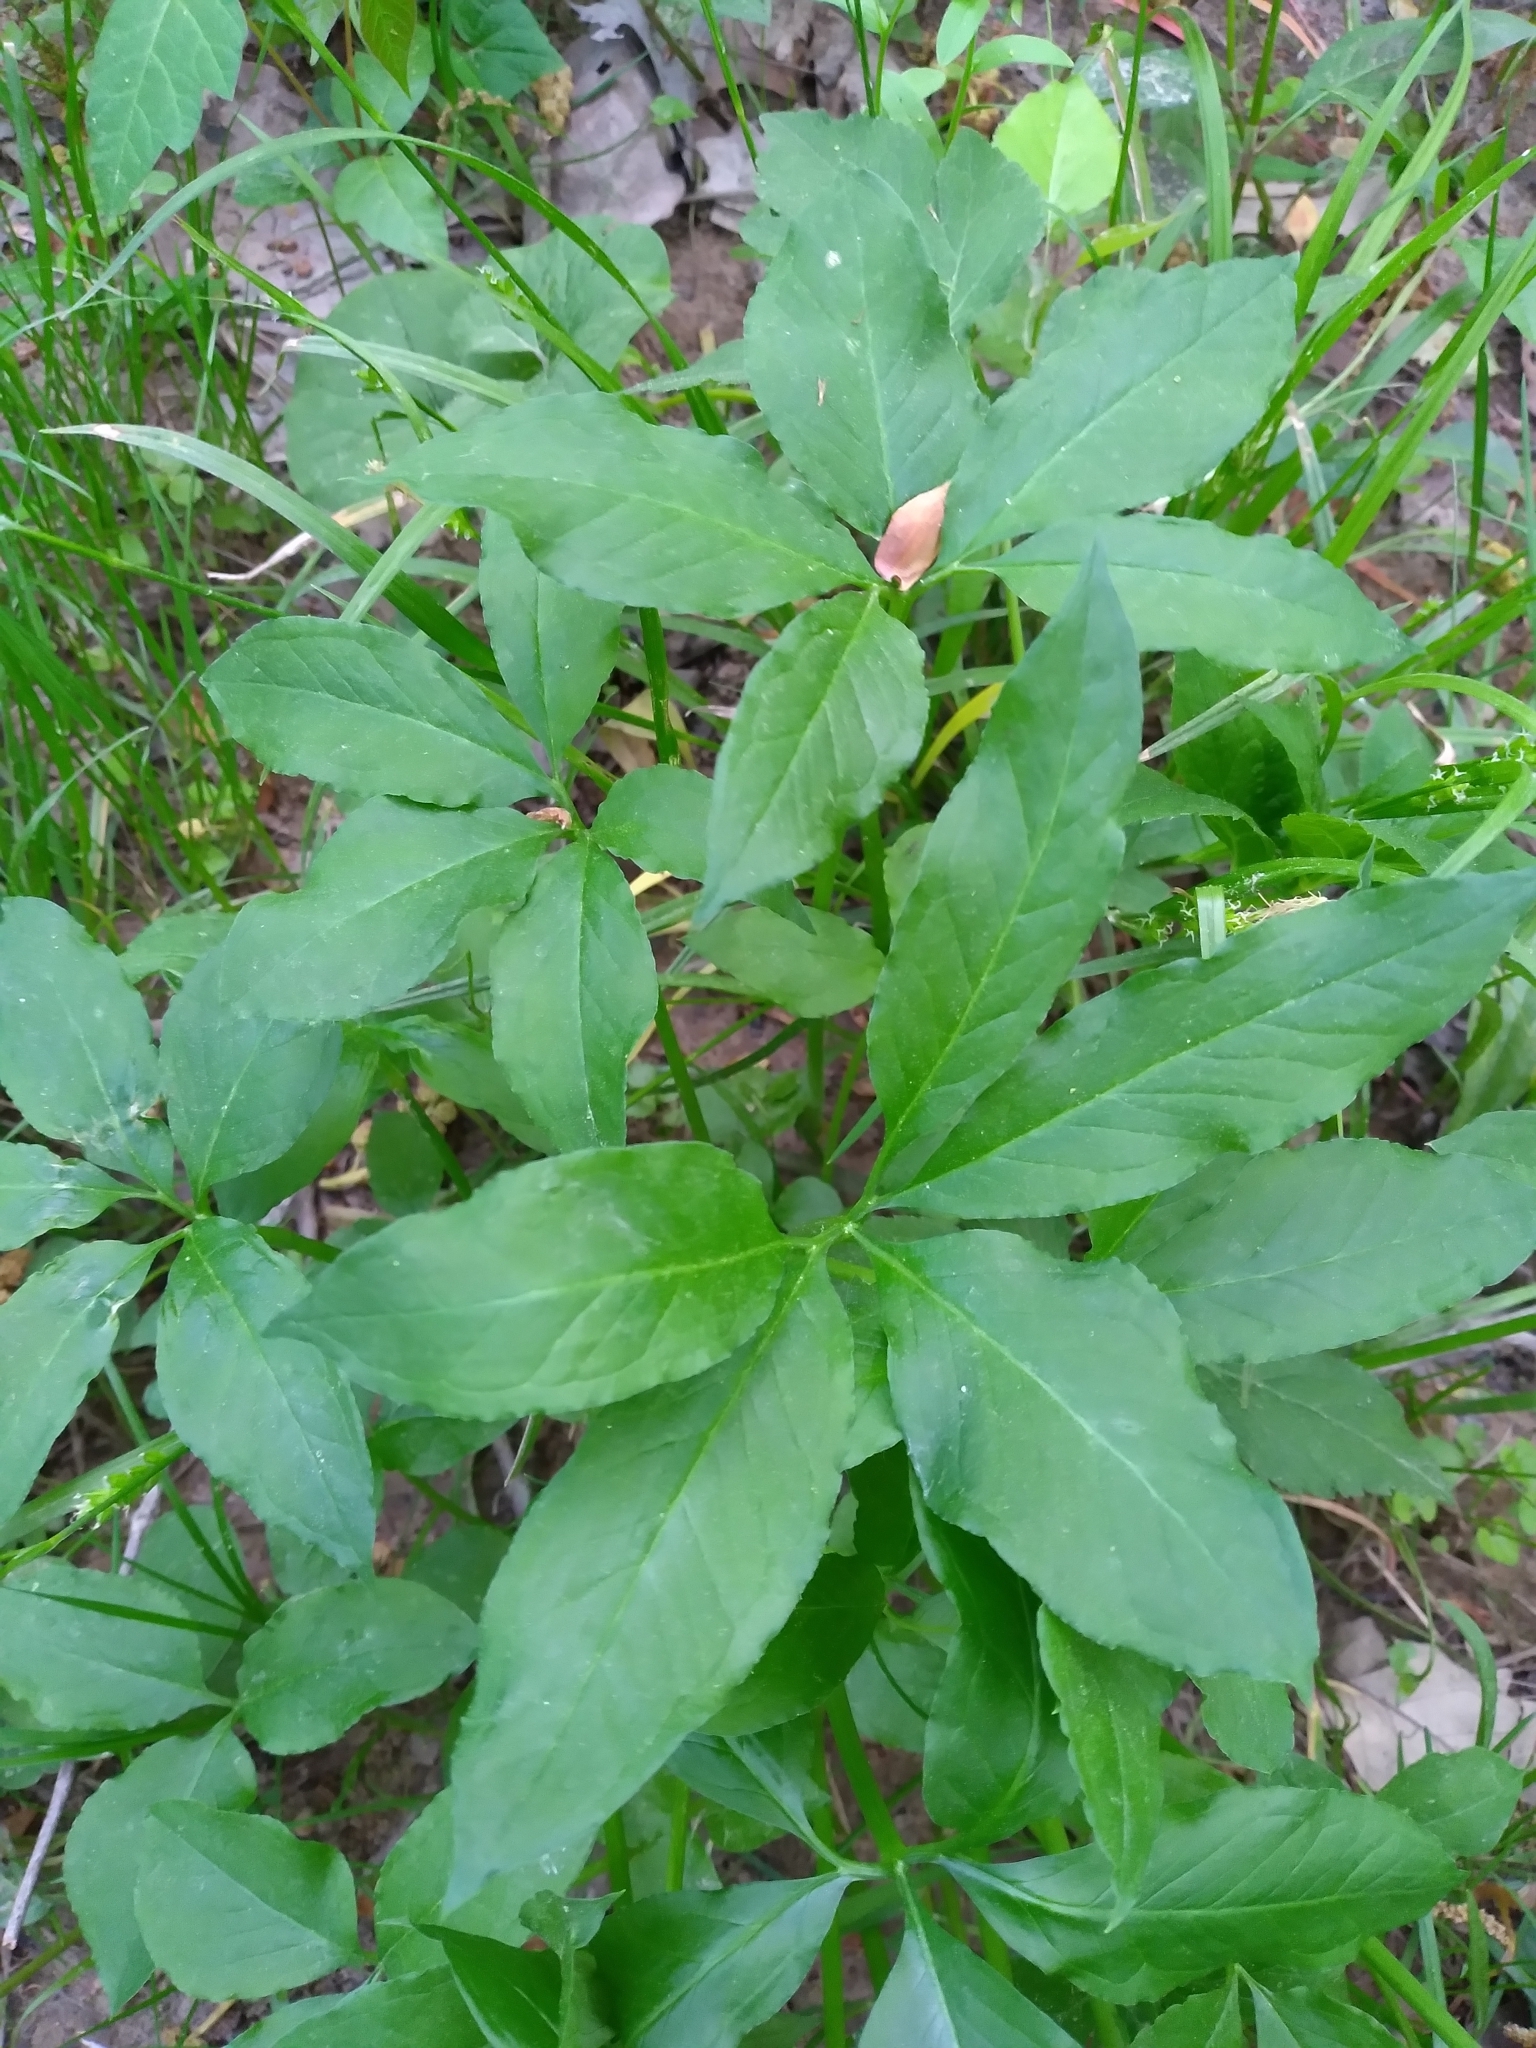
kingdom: Plantae
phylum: Tracheophyta
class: Liliopsida
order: Alismatales
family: Araceae
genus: Arisaema
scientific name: Arisaema dracontium
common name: Dragon-arum
